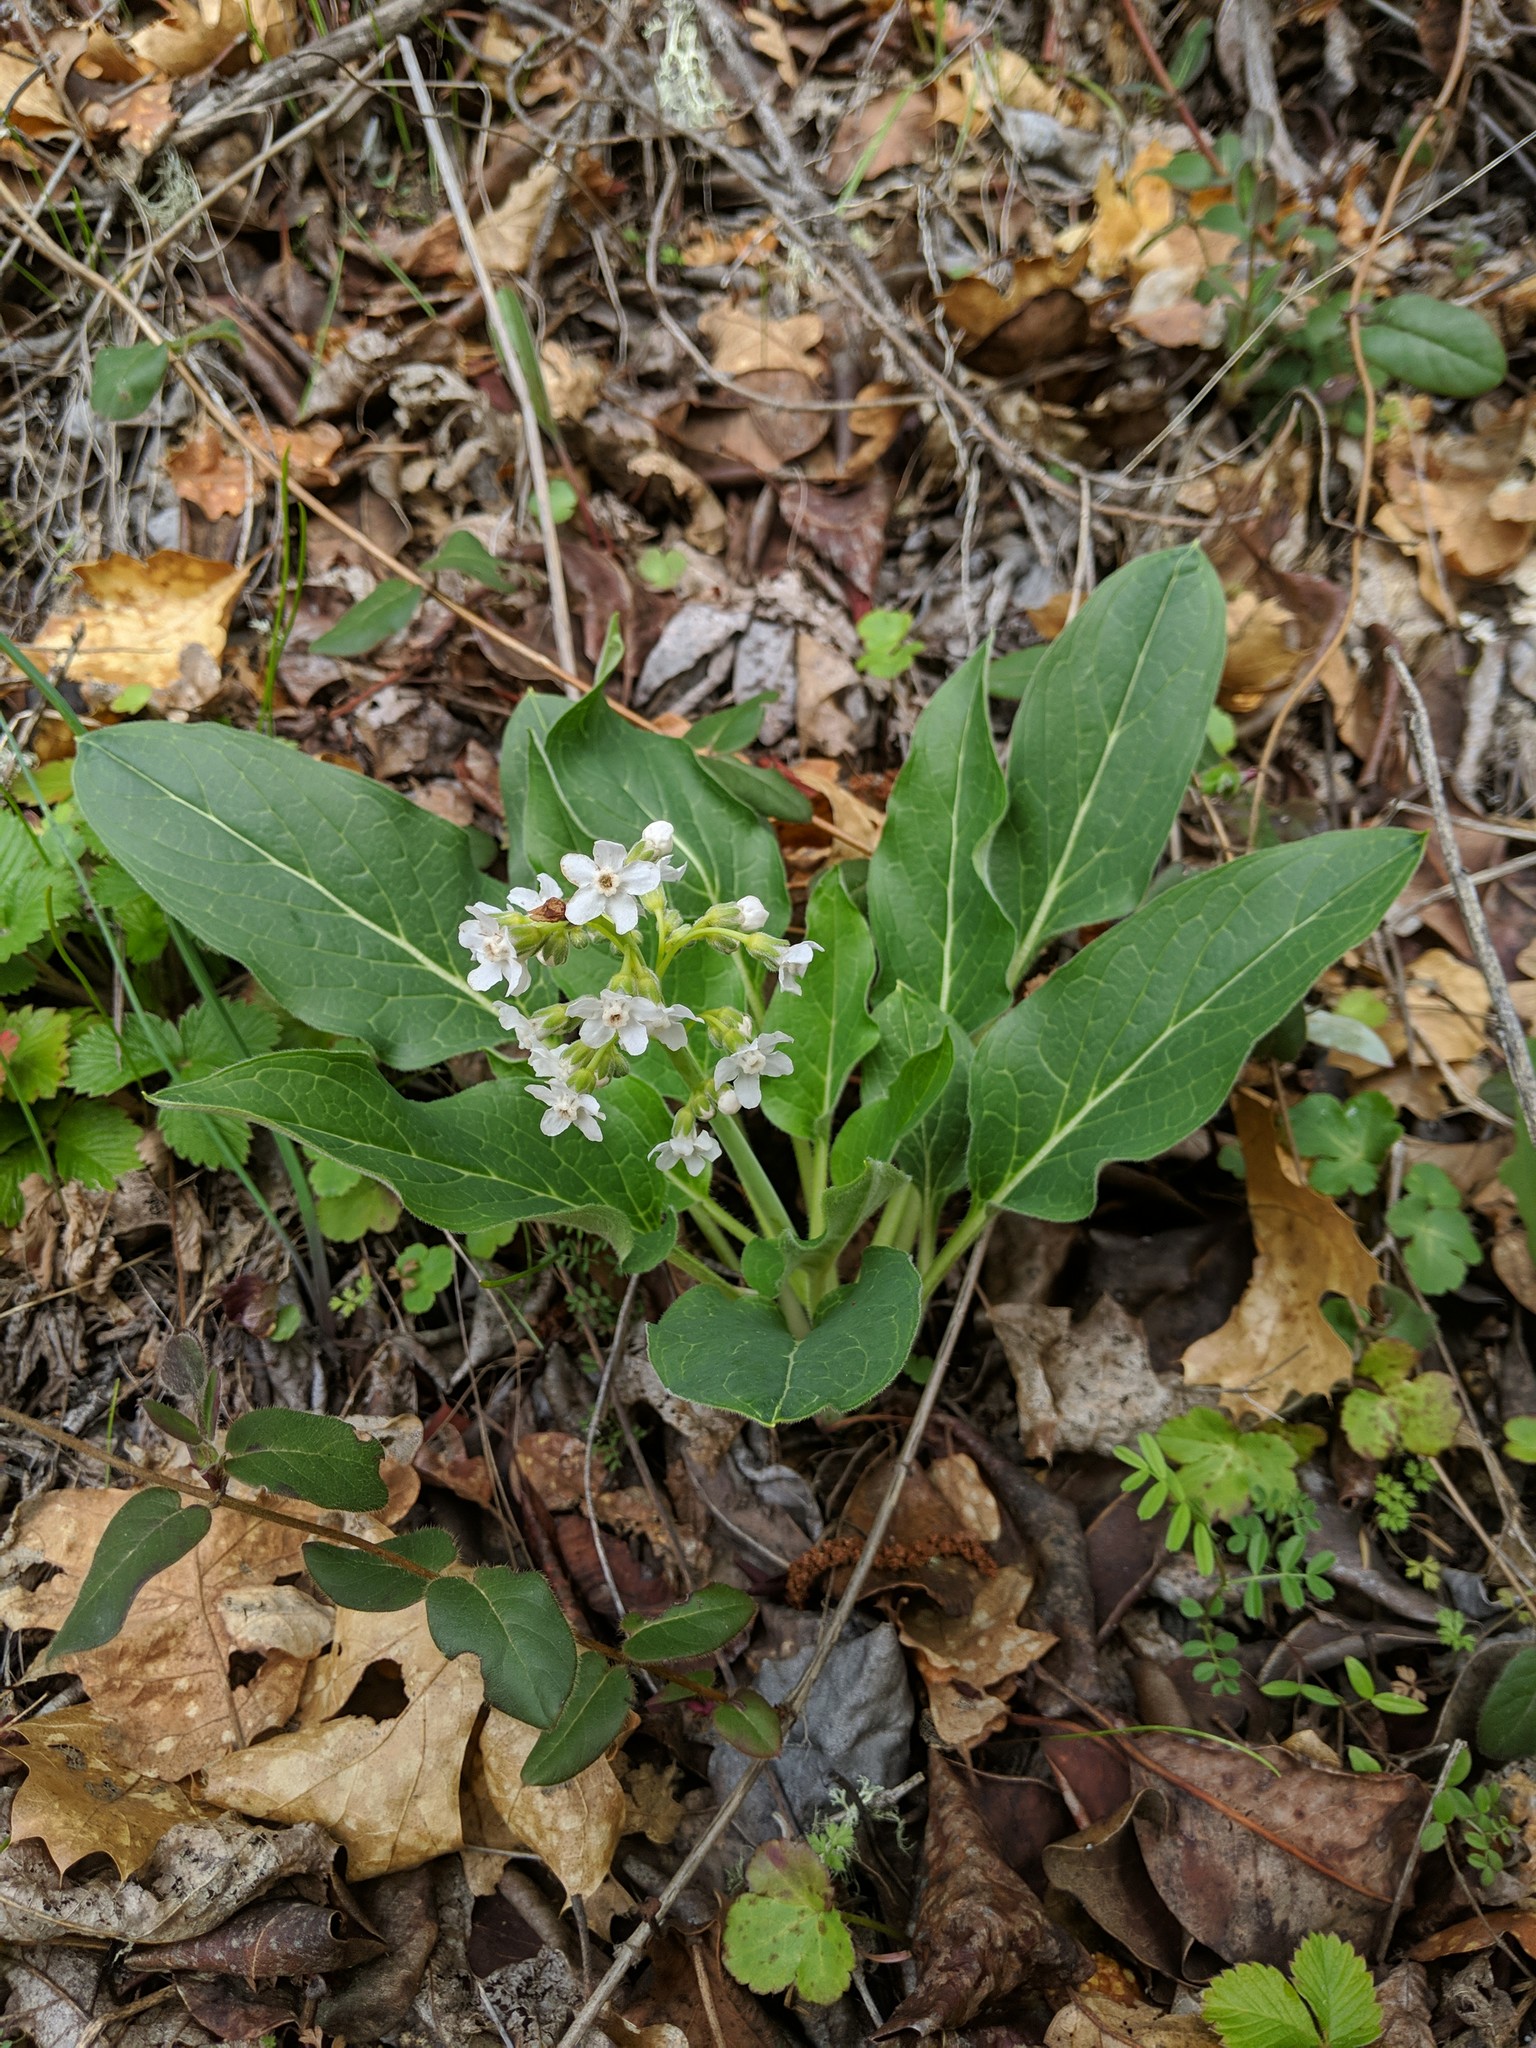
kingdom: Plantae
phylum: Tracheophyta
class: Magnoliopsida
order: Boraginales
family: Boraginaceae
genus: Adelinia
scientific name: Adelinia grande
